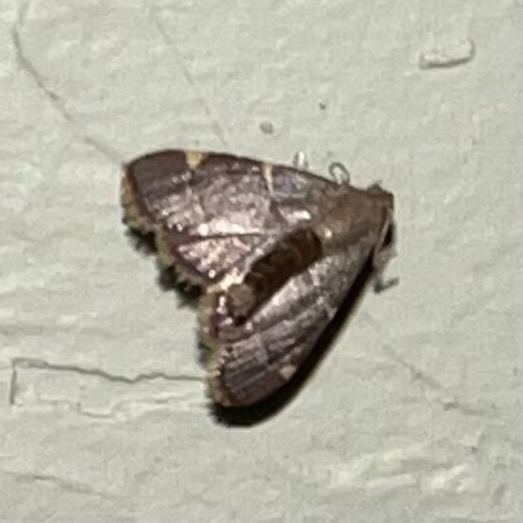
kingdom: Animalia
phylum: Arthropoda
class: Insecta
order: Lepidoptera
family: Pyralidae
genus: Hypsopygia
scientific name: Hypsopygia olinalis
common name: Yellow-fringed dolichomia moth
